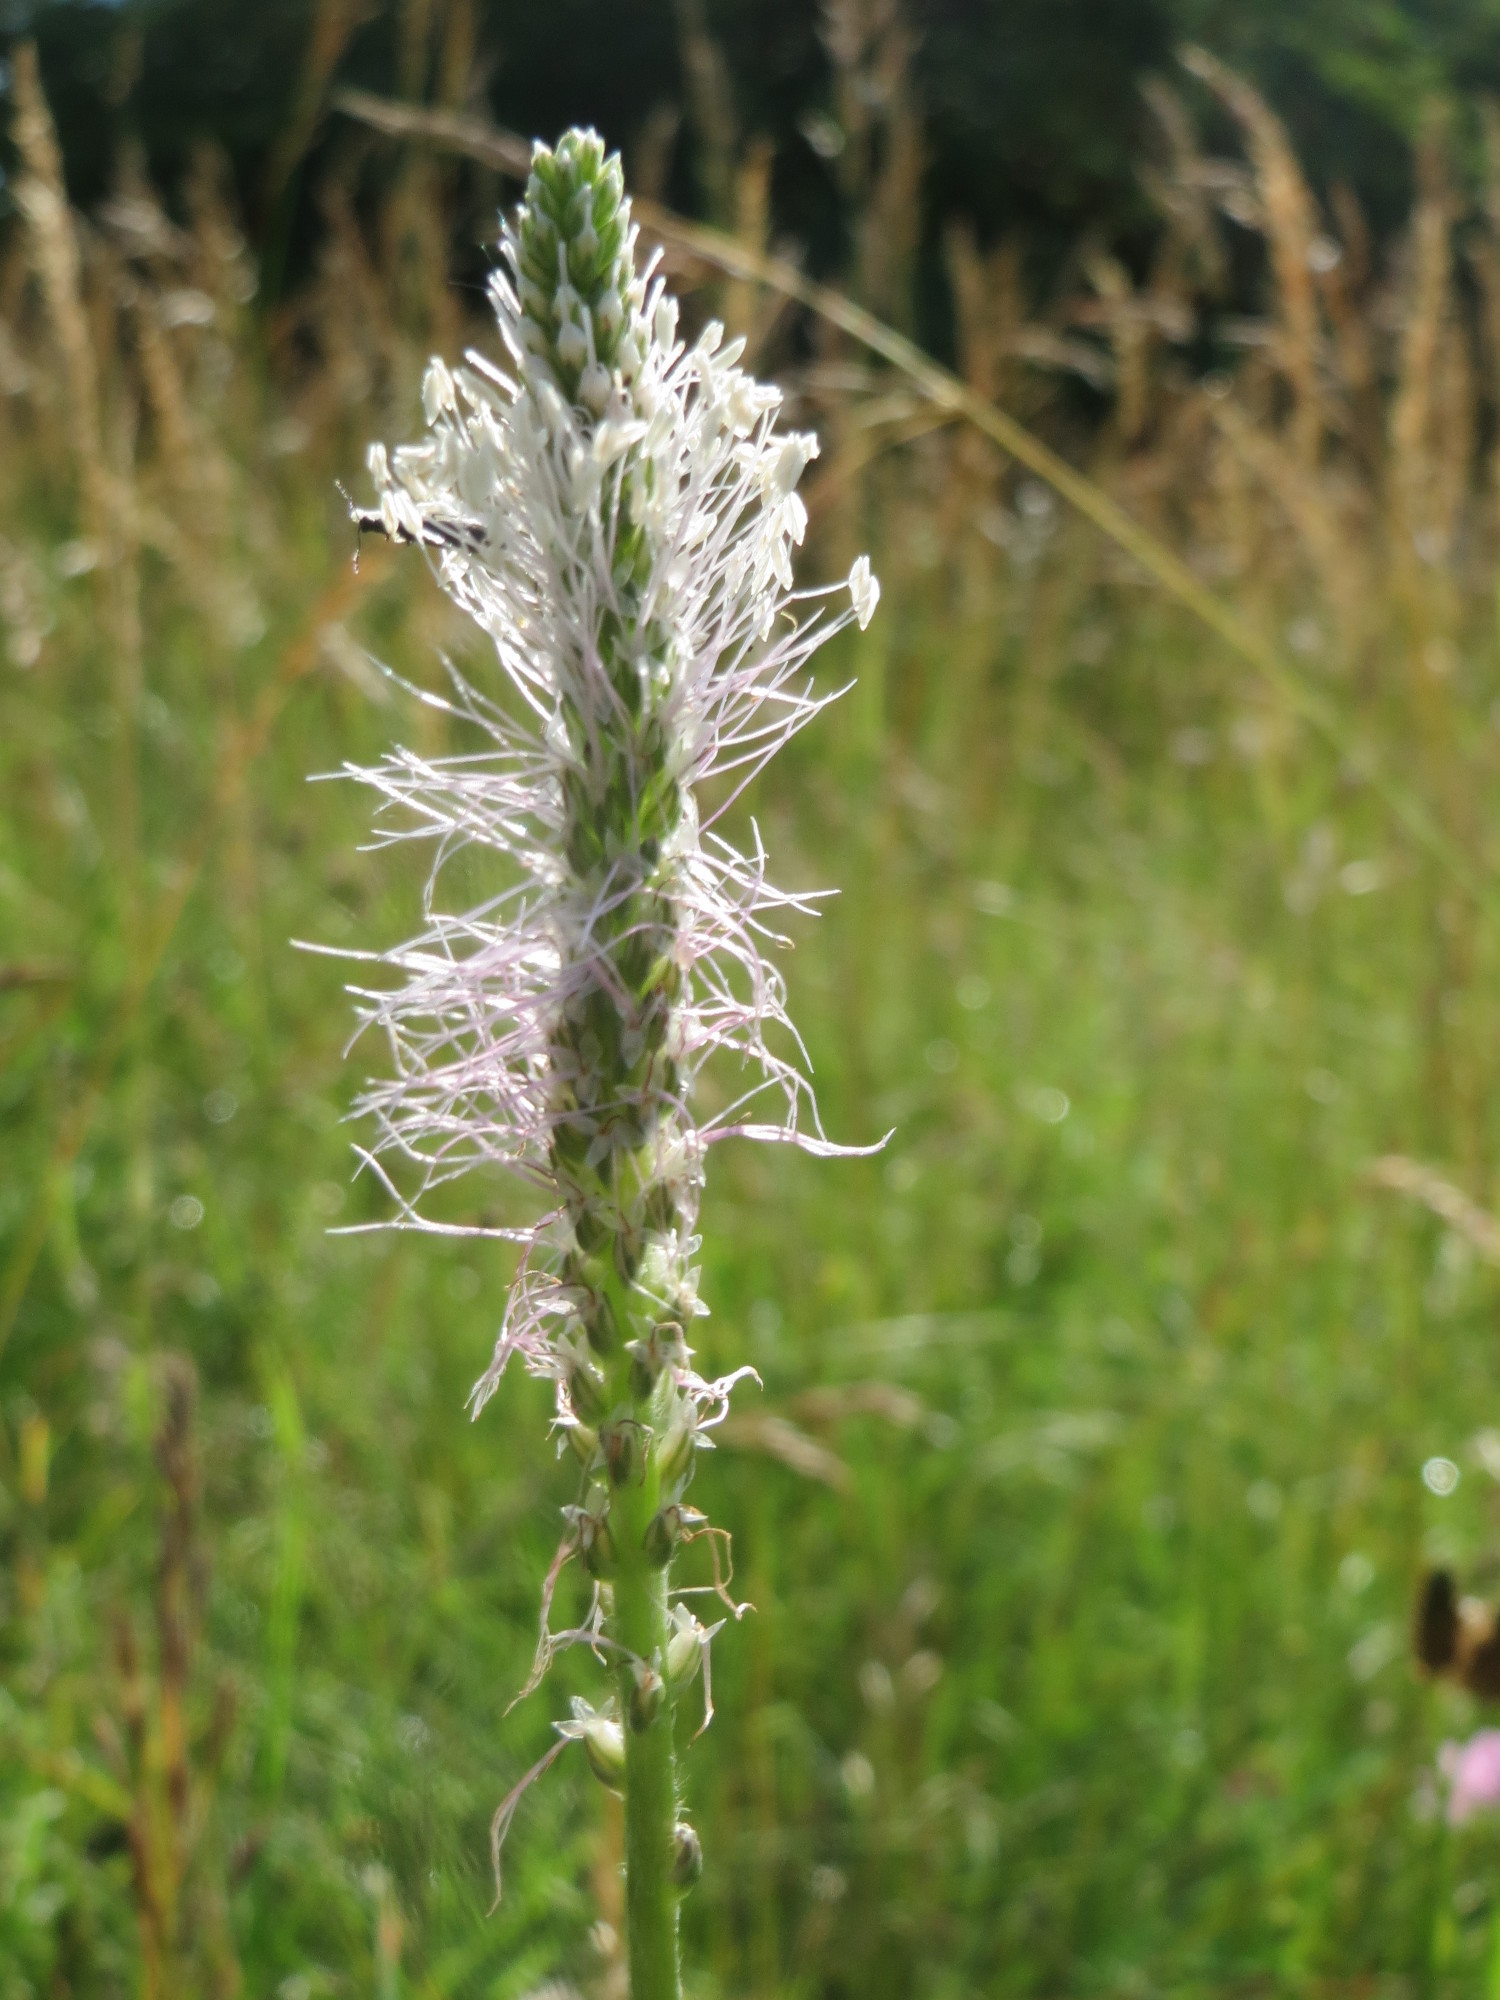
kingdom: Plantae
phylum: Tracheophyta
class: Magnoliopsida
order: Lamiales
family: Plantaginaceae
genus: Plantago
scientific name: Plantago media
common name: Hoary plantain
